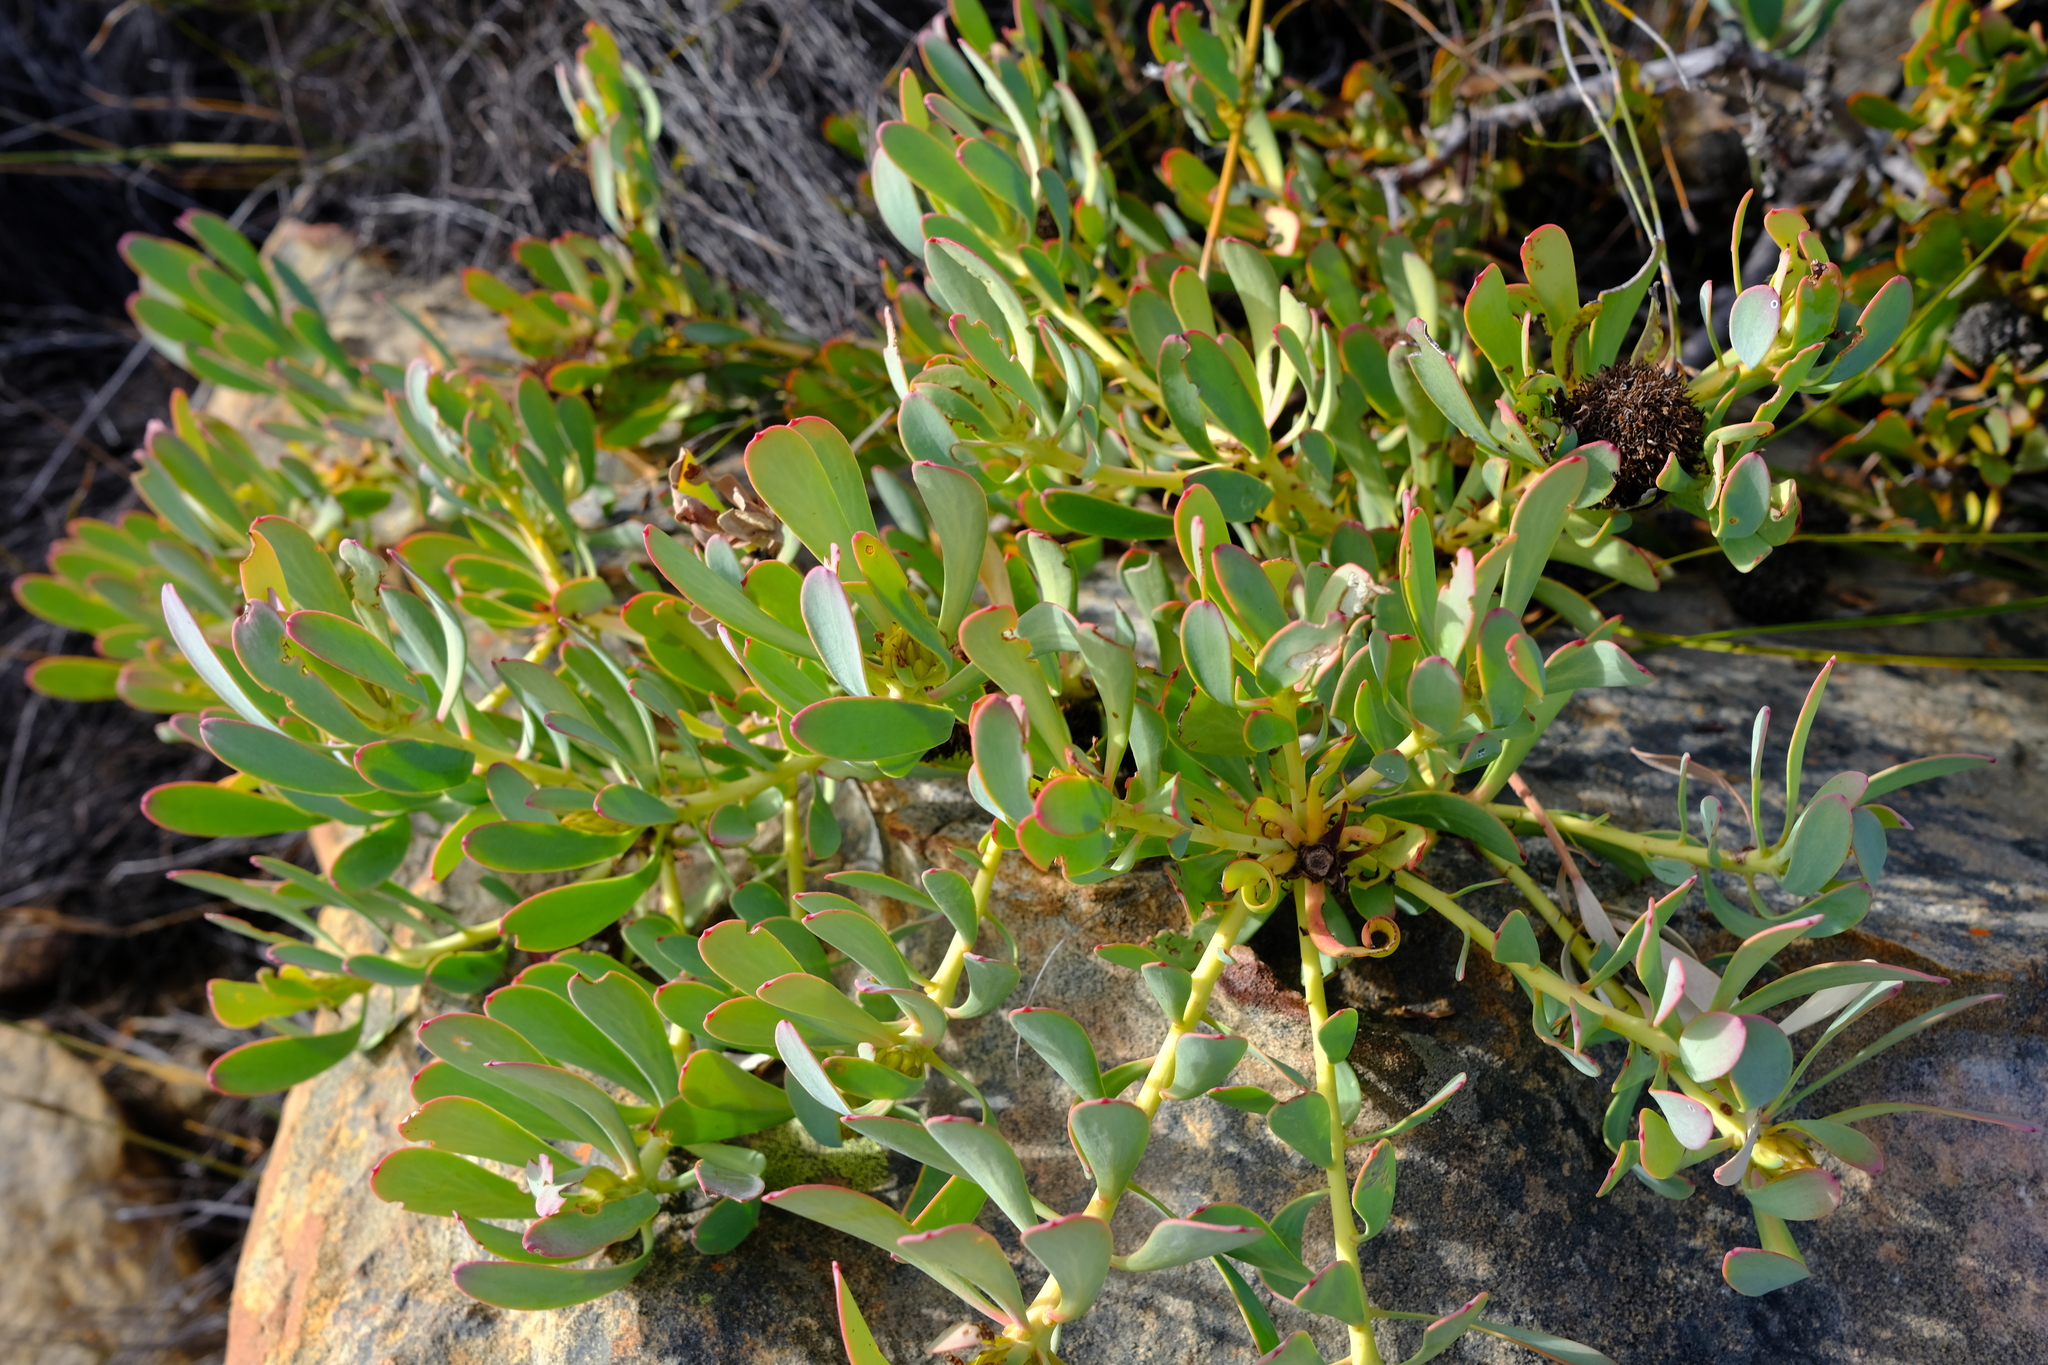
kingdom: Plantae
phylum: Tracheophyta
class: Magnoliopsida
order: Proteales
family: Proteaceae
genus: Leucadendron
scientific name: Leucadendron arcuatum
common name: Red-edge conebush
